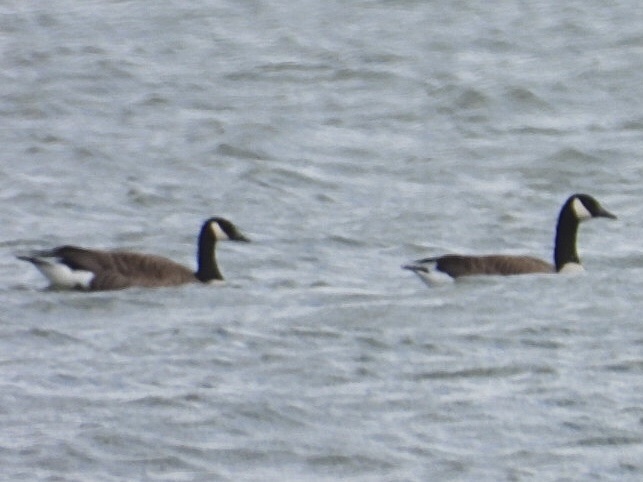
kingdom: Animalia
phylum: Chordata
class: Aves
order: Anseriformes
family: Anatidae
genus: Branta
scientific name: Branta canadensis
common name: Canada goose
